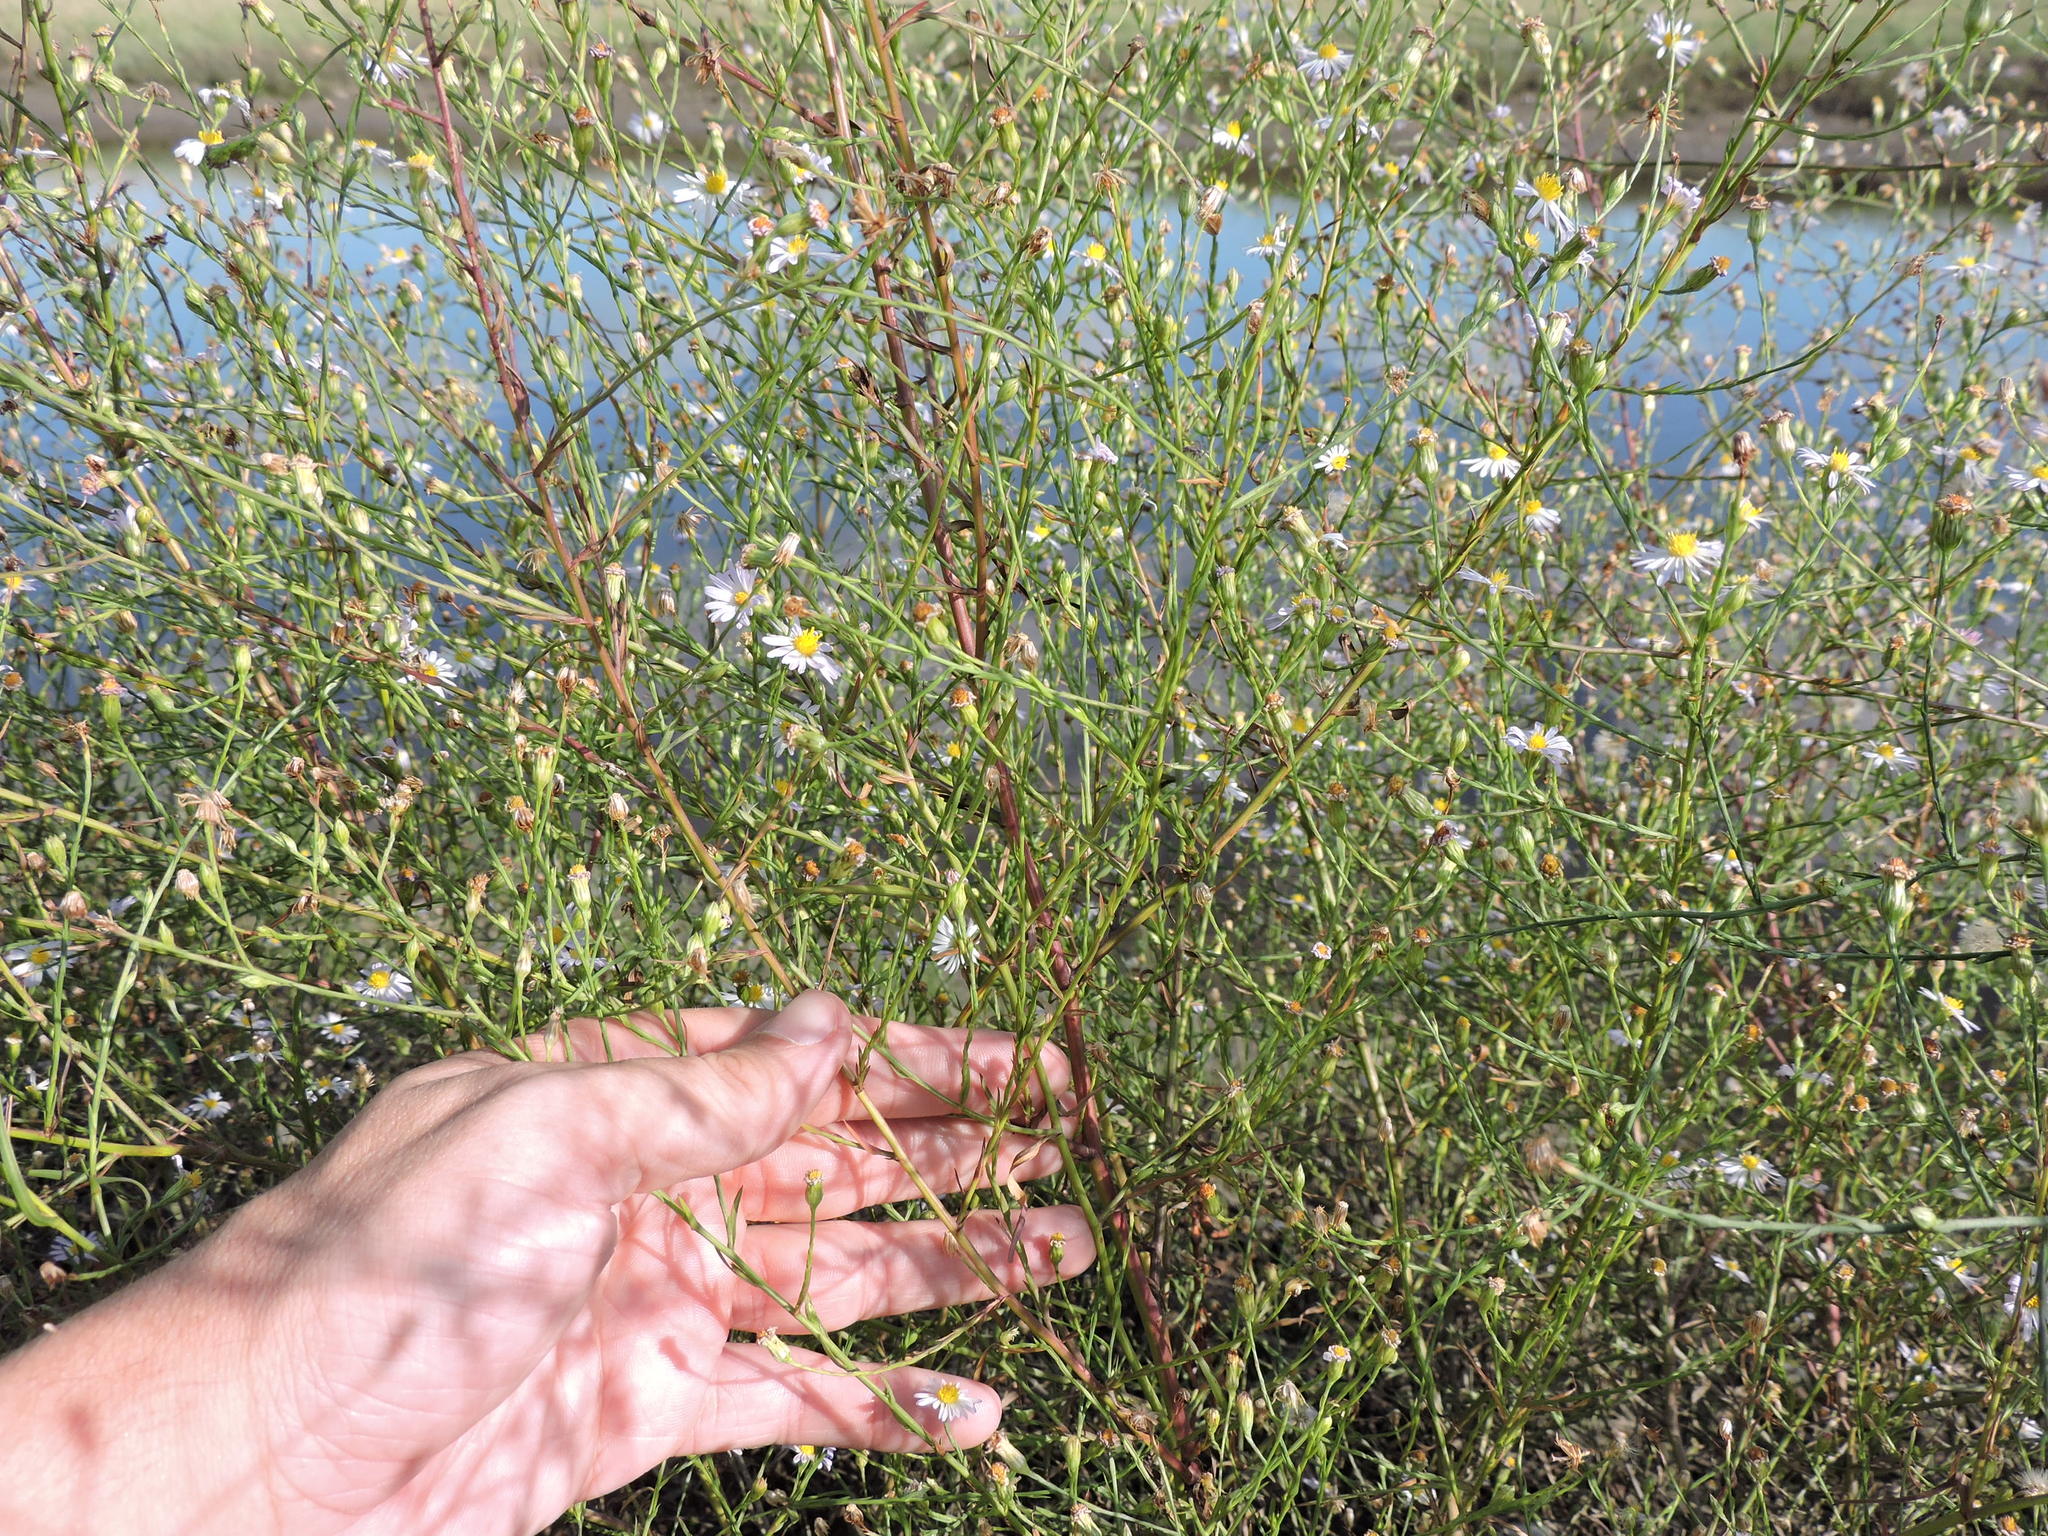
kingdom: Plantae
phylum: Tracheophyta
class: Magnoliopsida
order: Asterales
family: Asteraceae
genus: Symphyotrichum
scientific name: Symphyotrichum divaricatum
